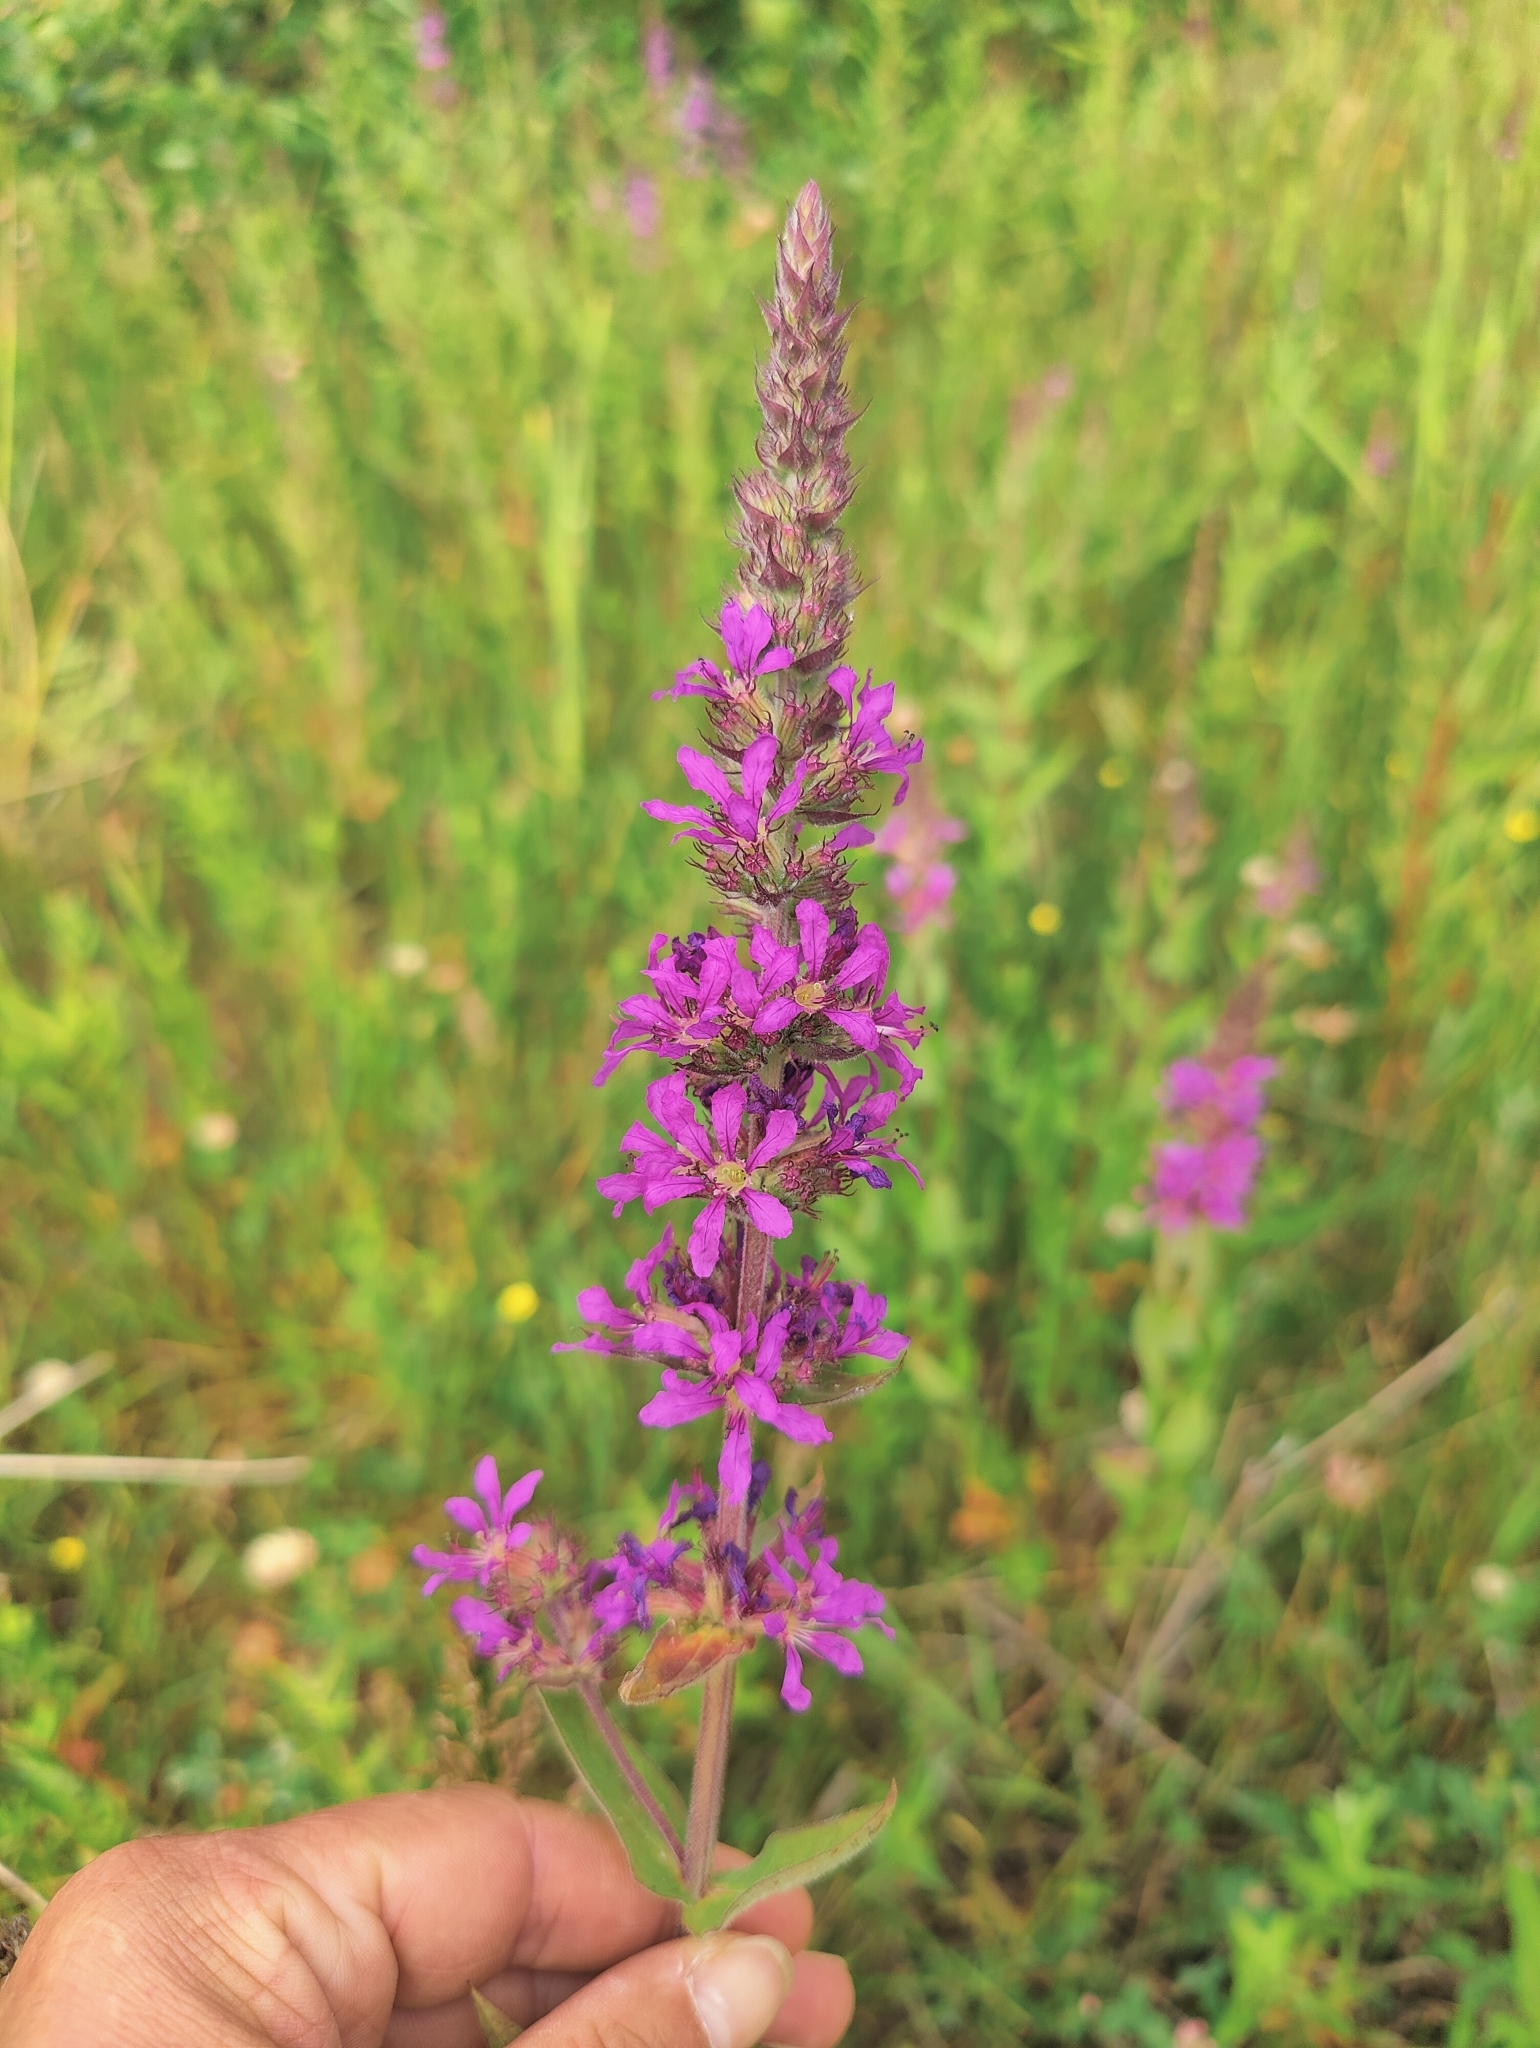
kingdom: Plantae
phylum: Tracheophyta
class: Magnoliopsida
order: Myrtales
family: Lythraceae
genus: Lythrum
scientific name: Lythrum salicaria
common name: Purple loosestrife
